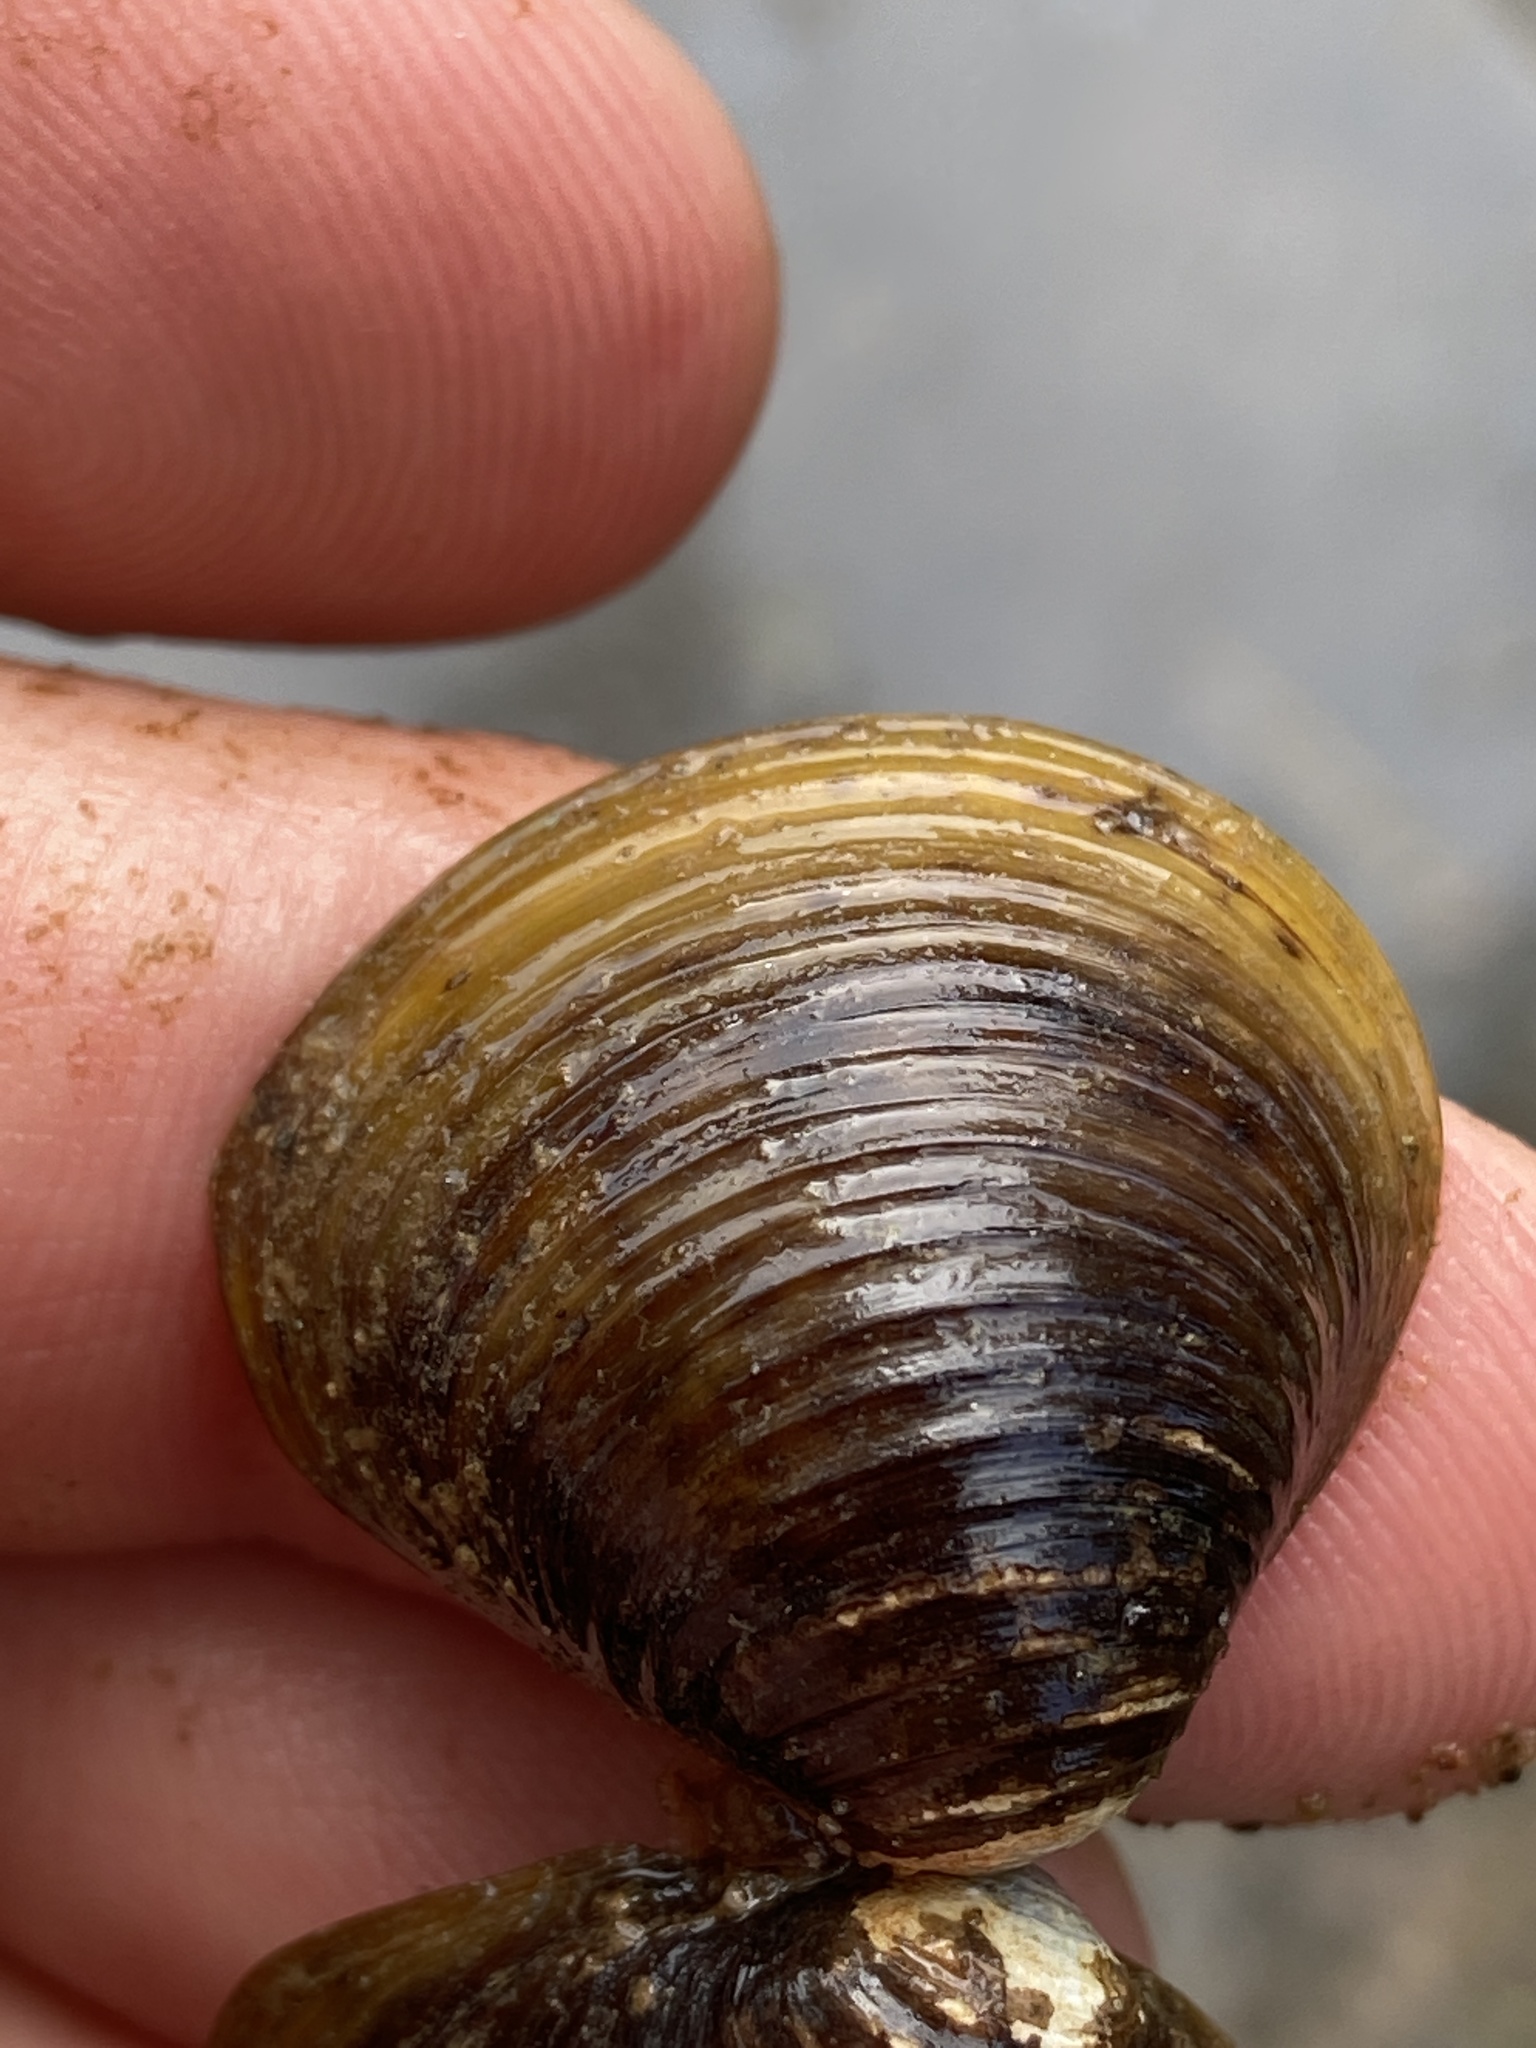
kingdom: Animalia
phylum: Mollusca
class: Bivalvia
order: Venerida
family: Cyrenidae
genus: Corbicula
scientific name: Corbicula fluminea
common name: Asian clam
